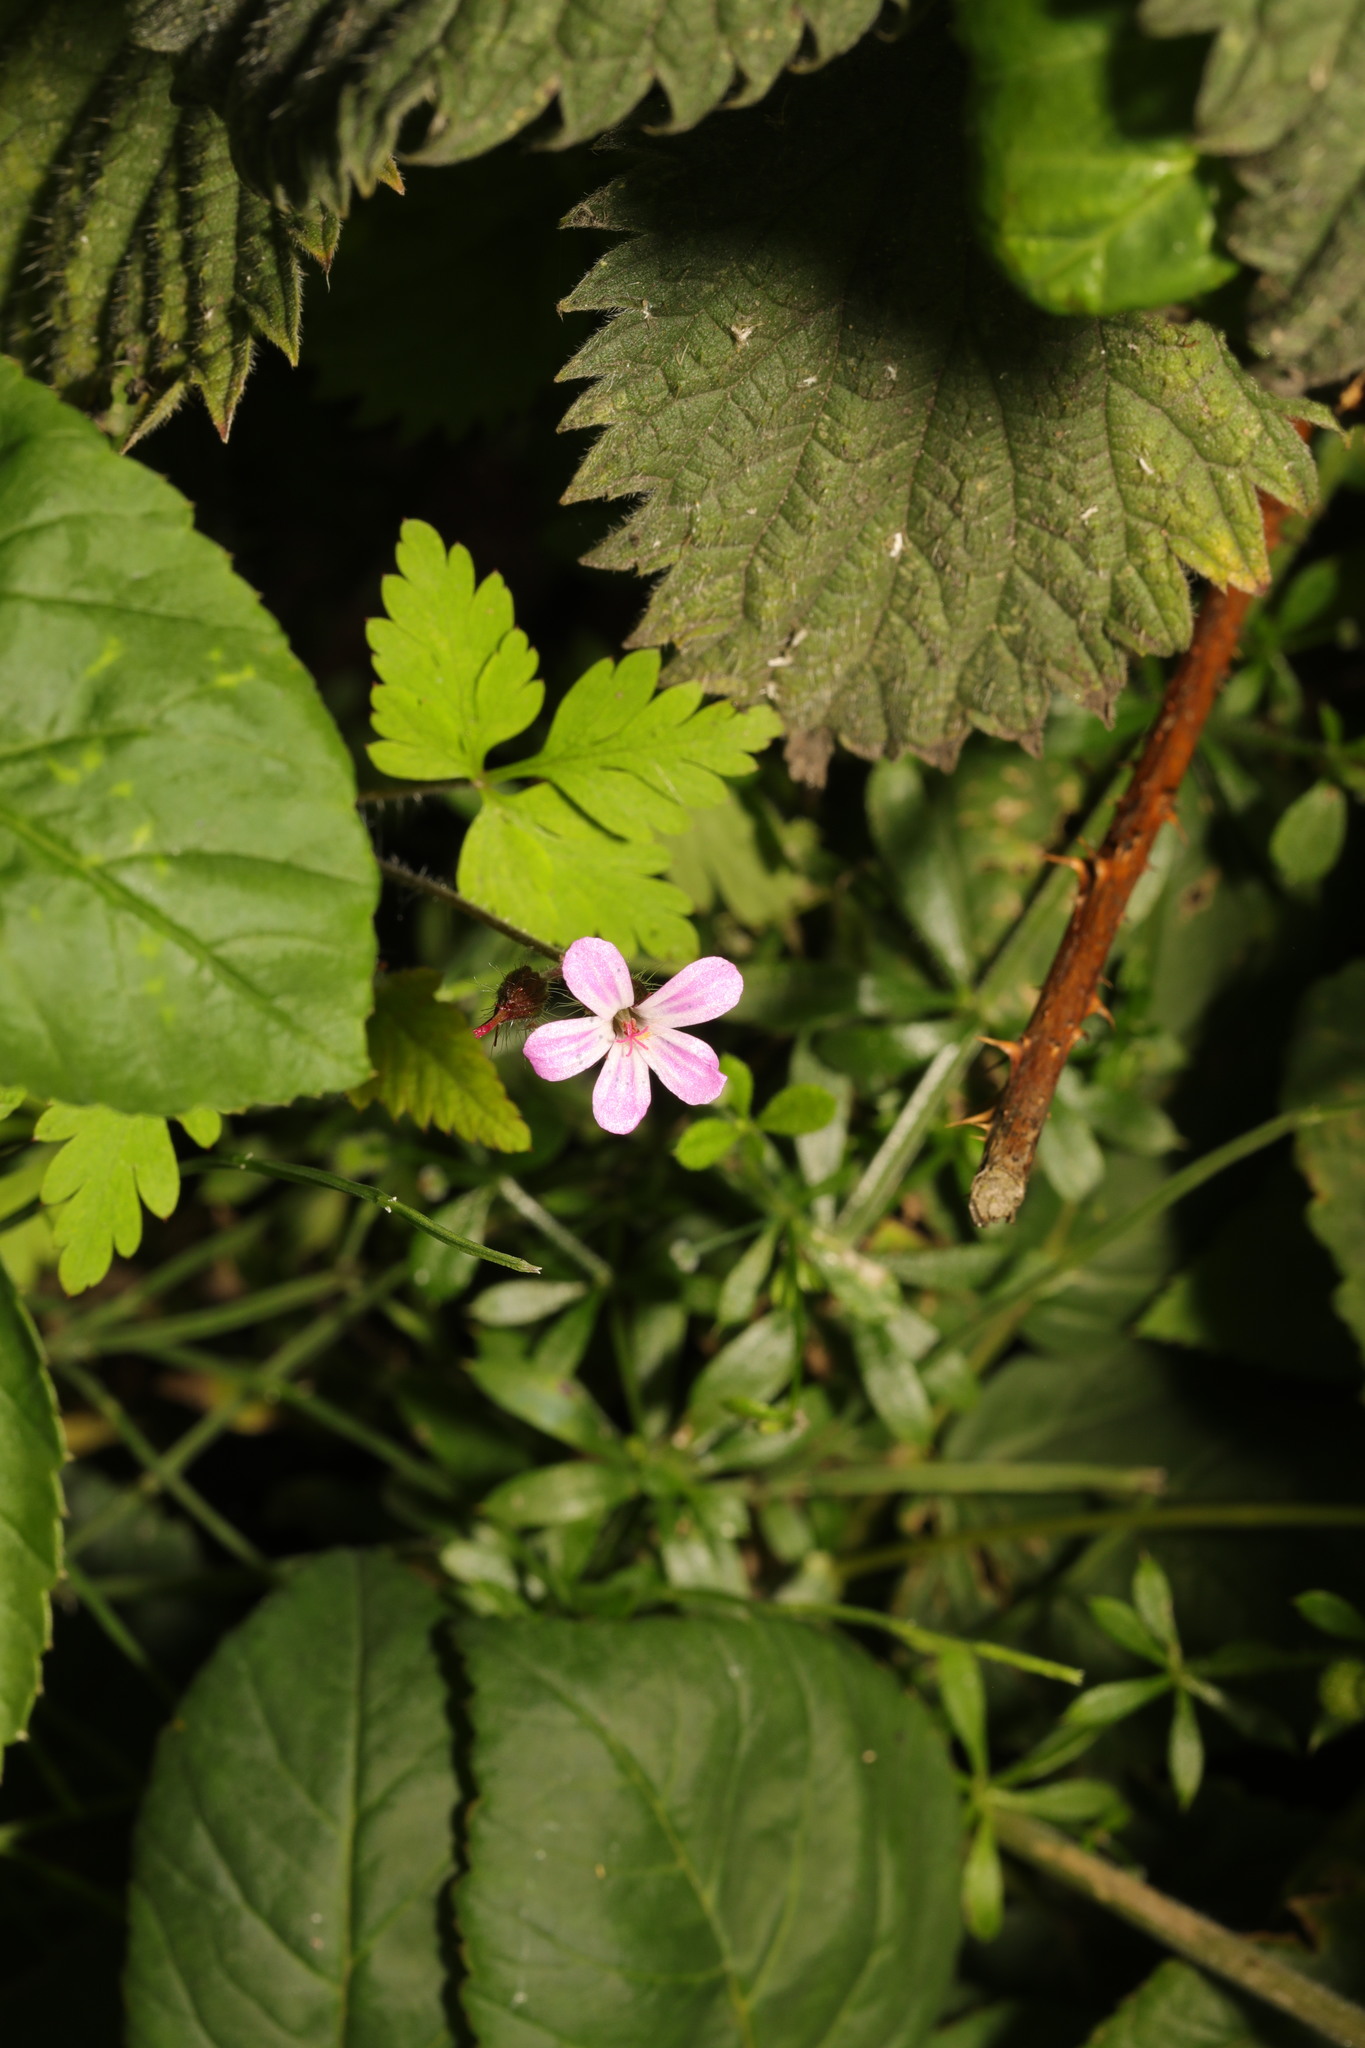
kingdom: Plantae
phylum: Tracheophyta
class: Magnoliopsida
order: Geraniales
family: Geraniaceae
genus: Geranium
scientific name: Geranium robertianum
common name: Herb-robert
